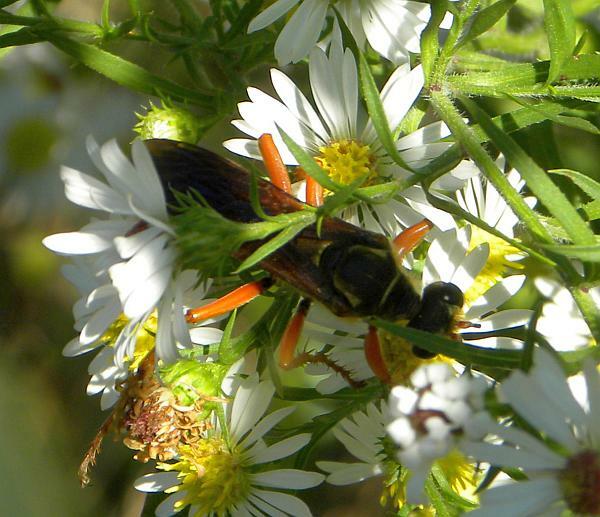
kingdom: Animalia
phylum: Arthropoda
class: Insecta
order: Hymenoptera
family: Sphecidae
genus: Sphex
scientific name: Sphex ichneumoneus
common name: Great golden digger wasp
